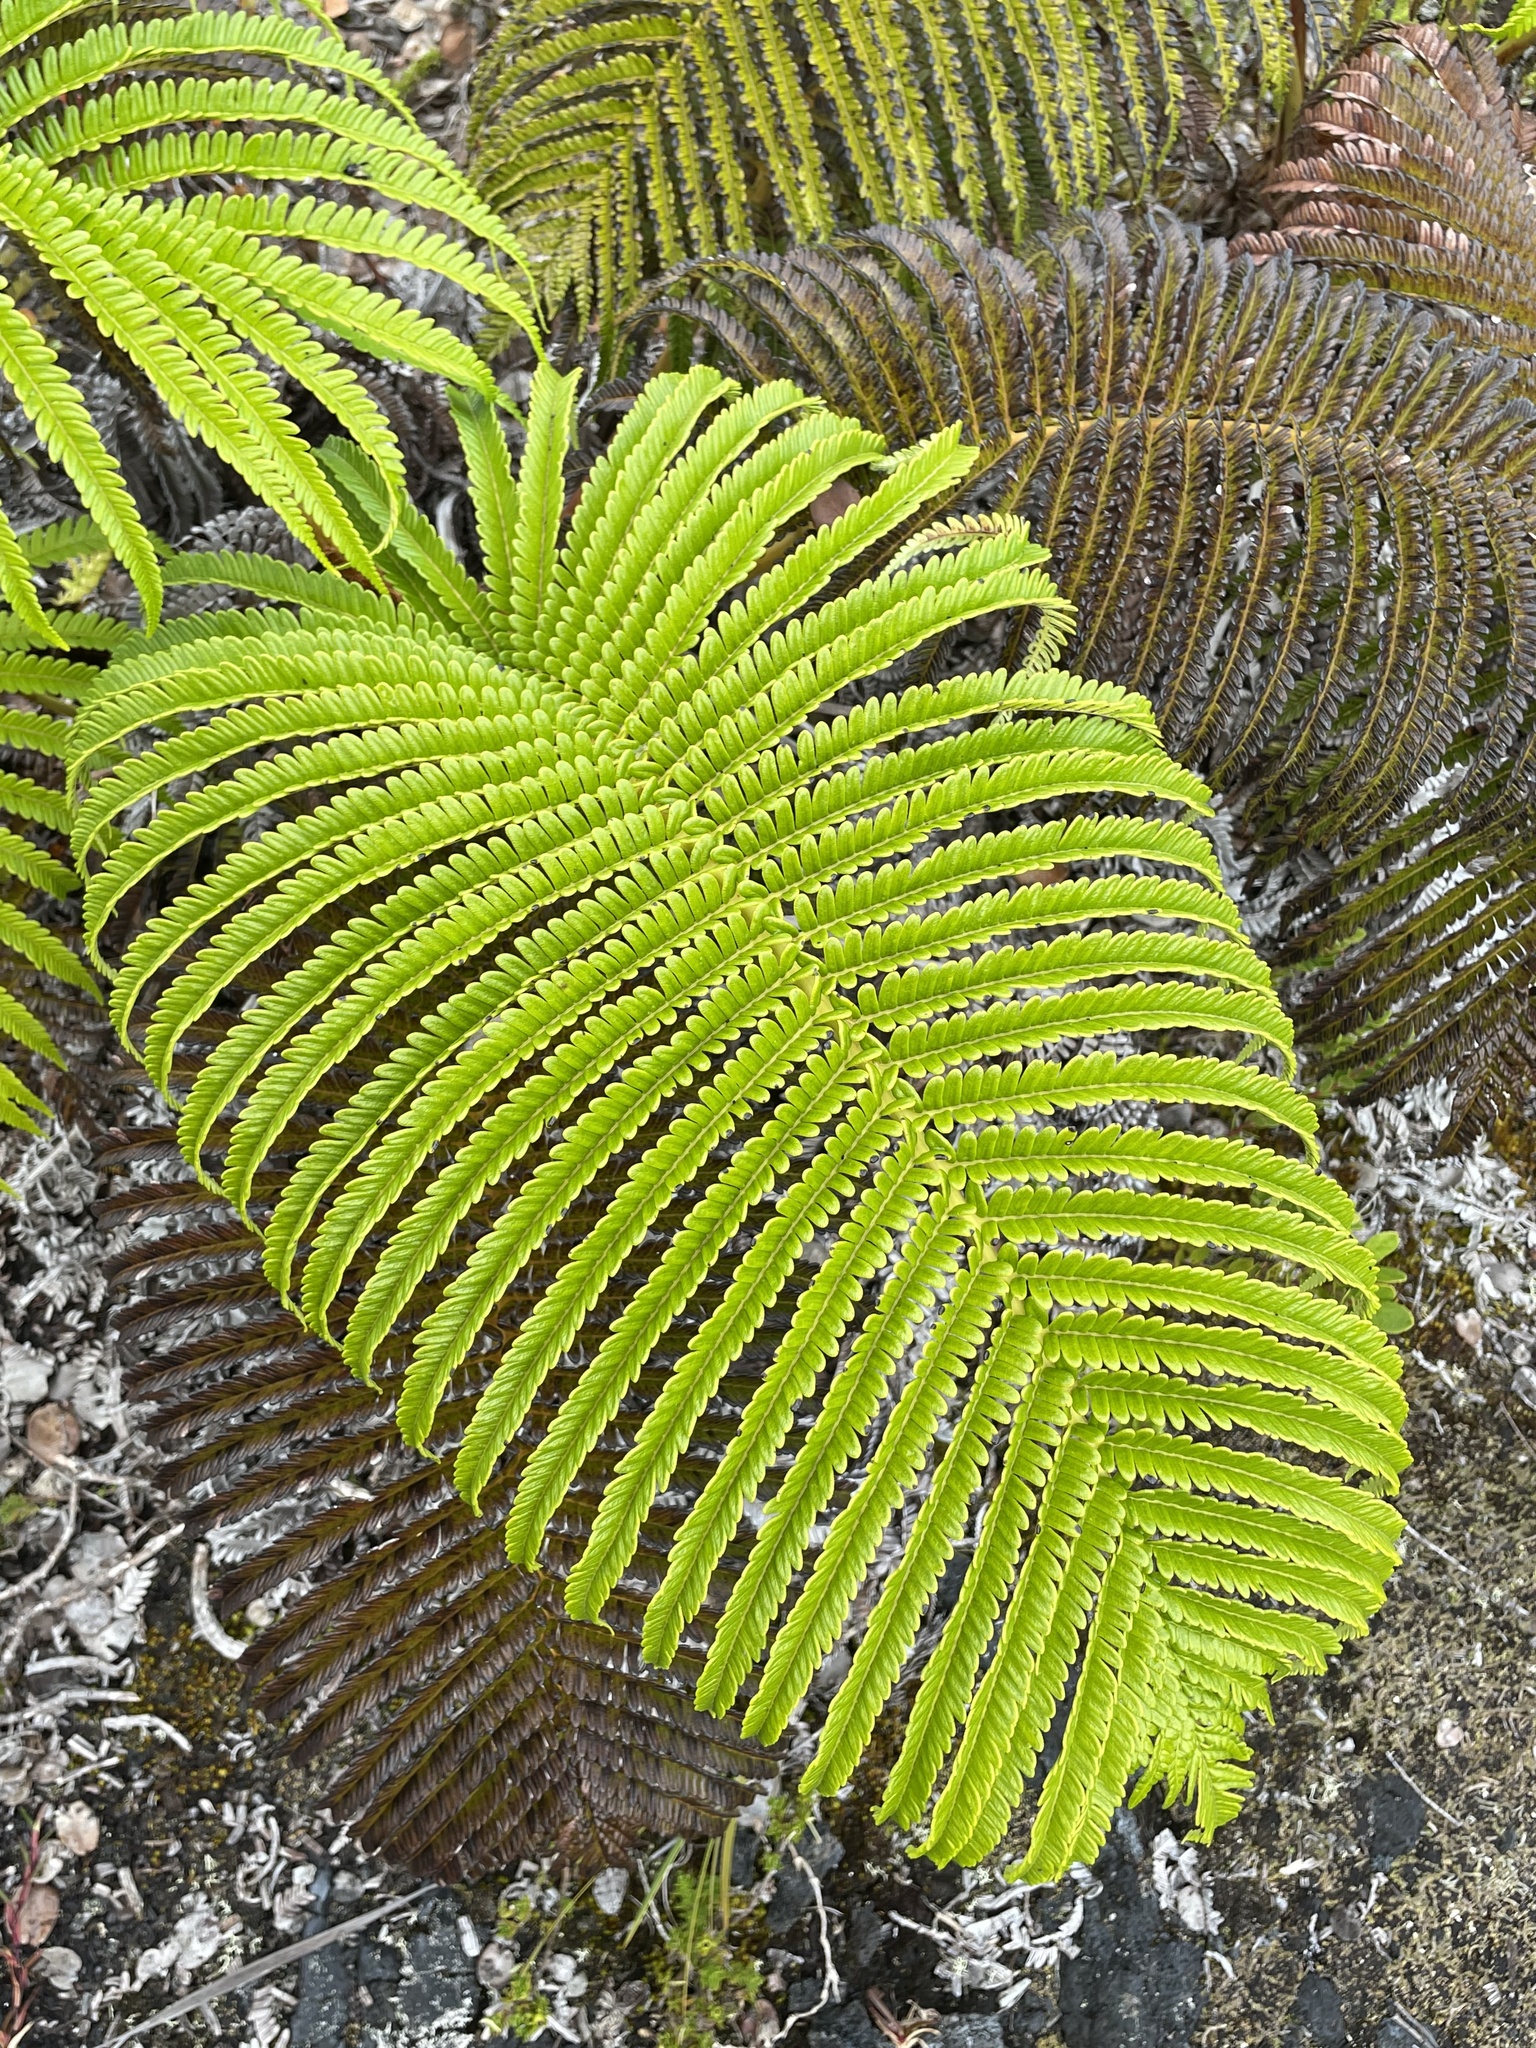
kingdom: Plantae
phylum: Tracheophyta
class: Polypodiopsida
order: Polypodiales
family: Blechnaceae
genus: Sadleria
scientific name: Sadleria cyatheoides
